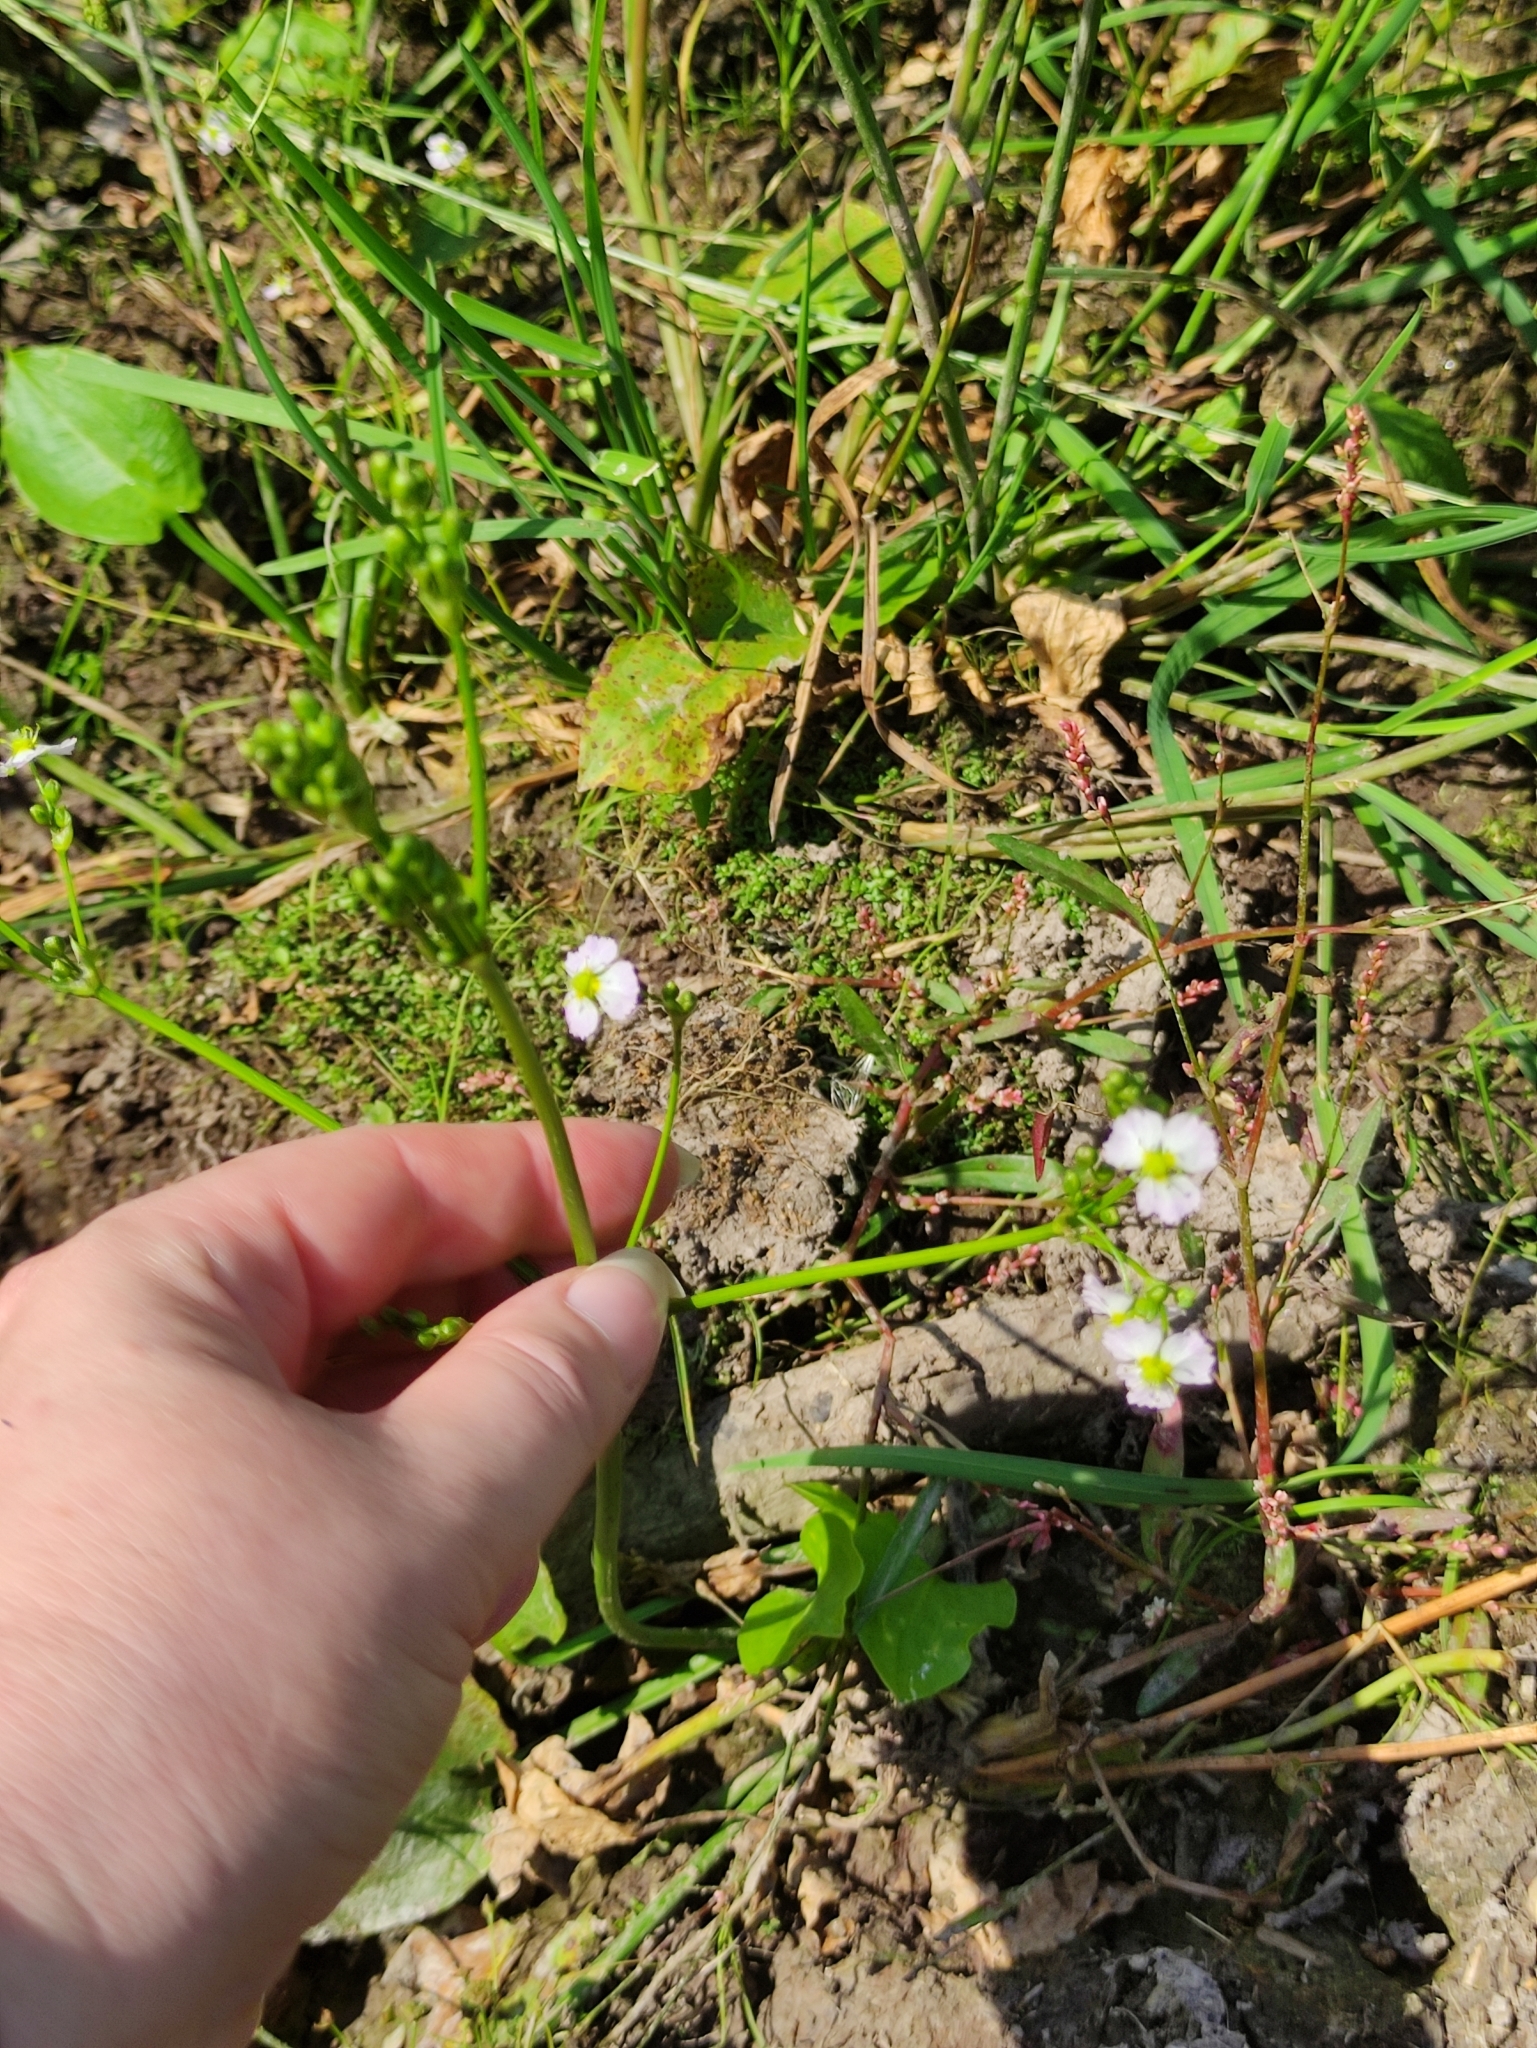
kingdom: Plantae
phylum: Tracheophyta
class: Liliopsida
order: Alismatales
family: Alismataceae
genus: Alisma
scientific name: Alisma plantago-aquatica
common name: Water-plantain
